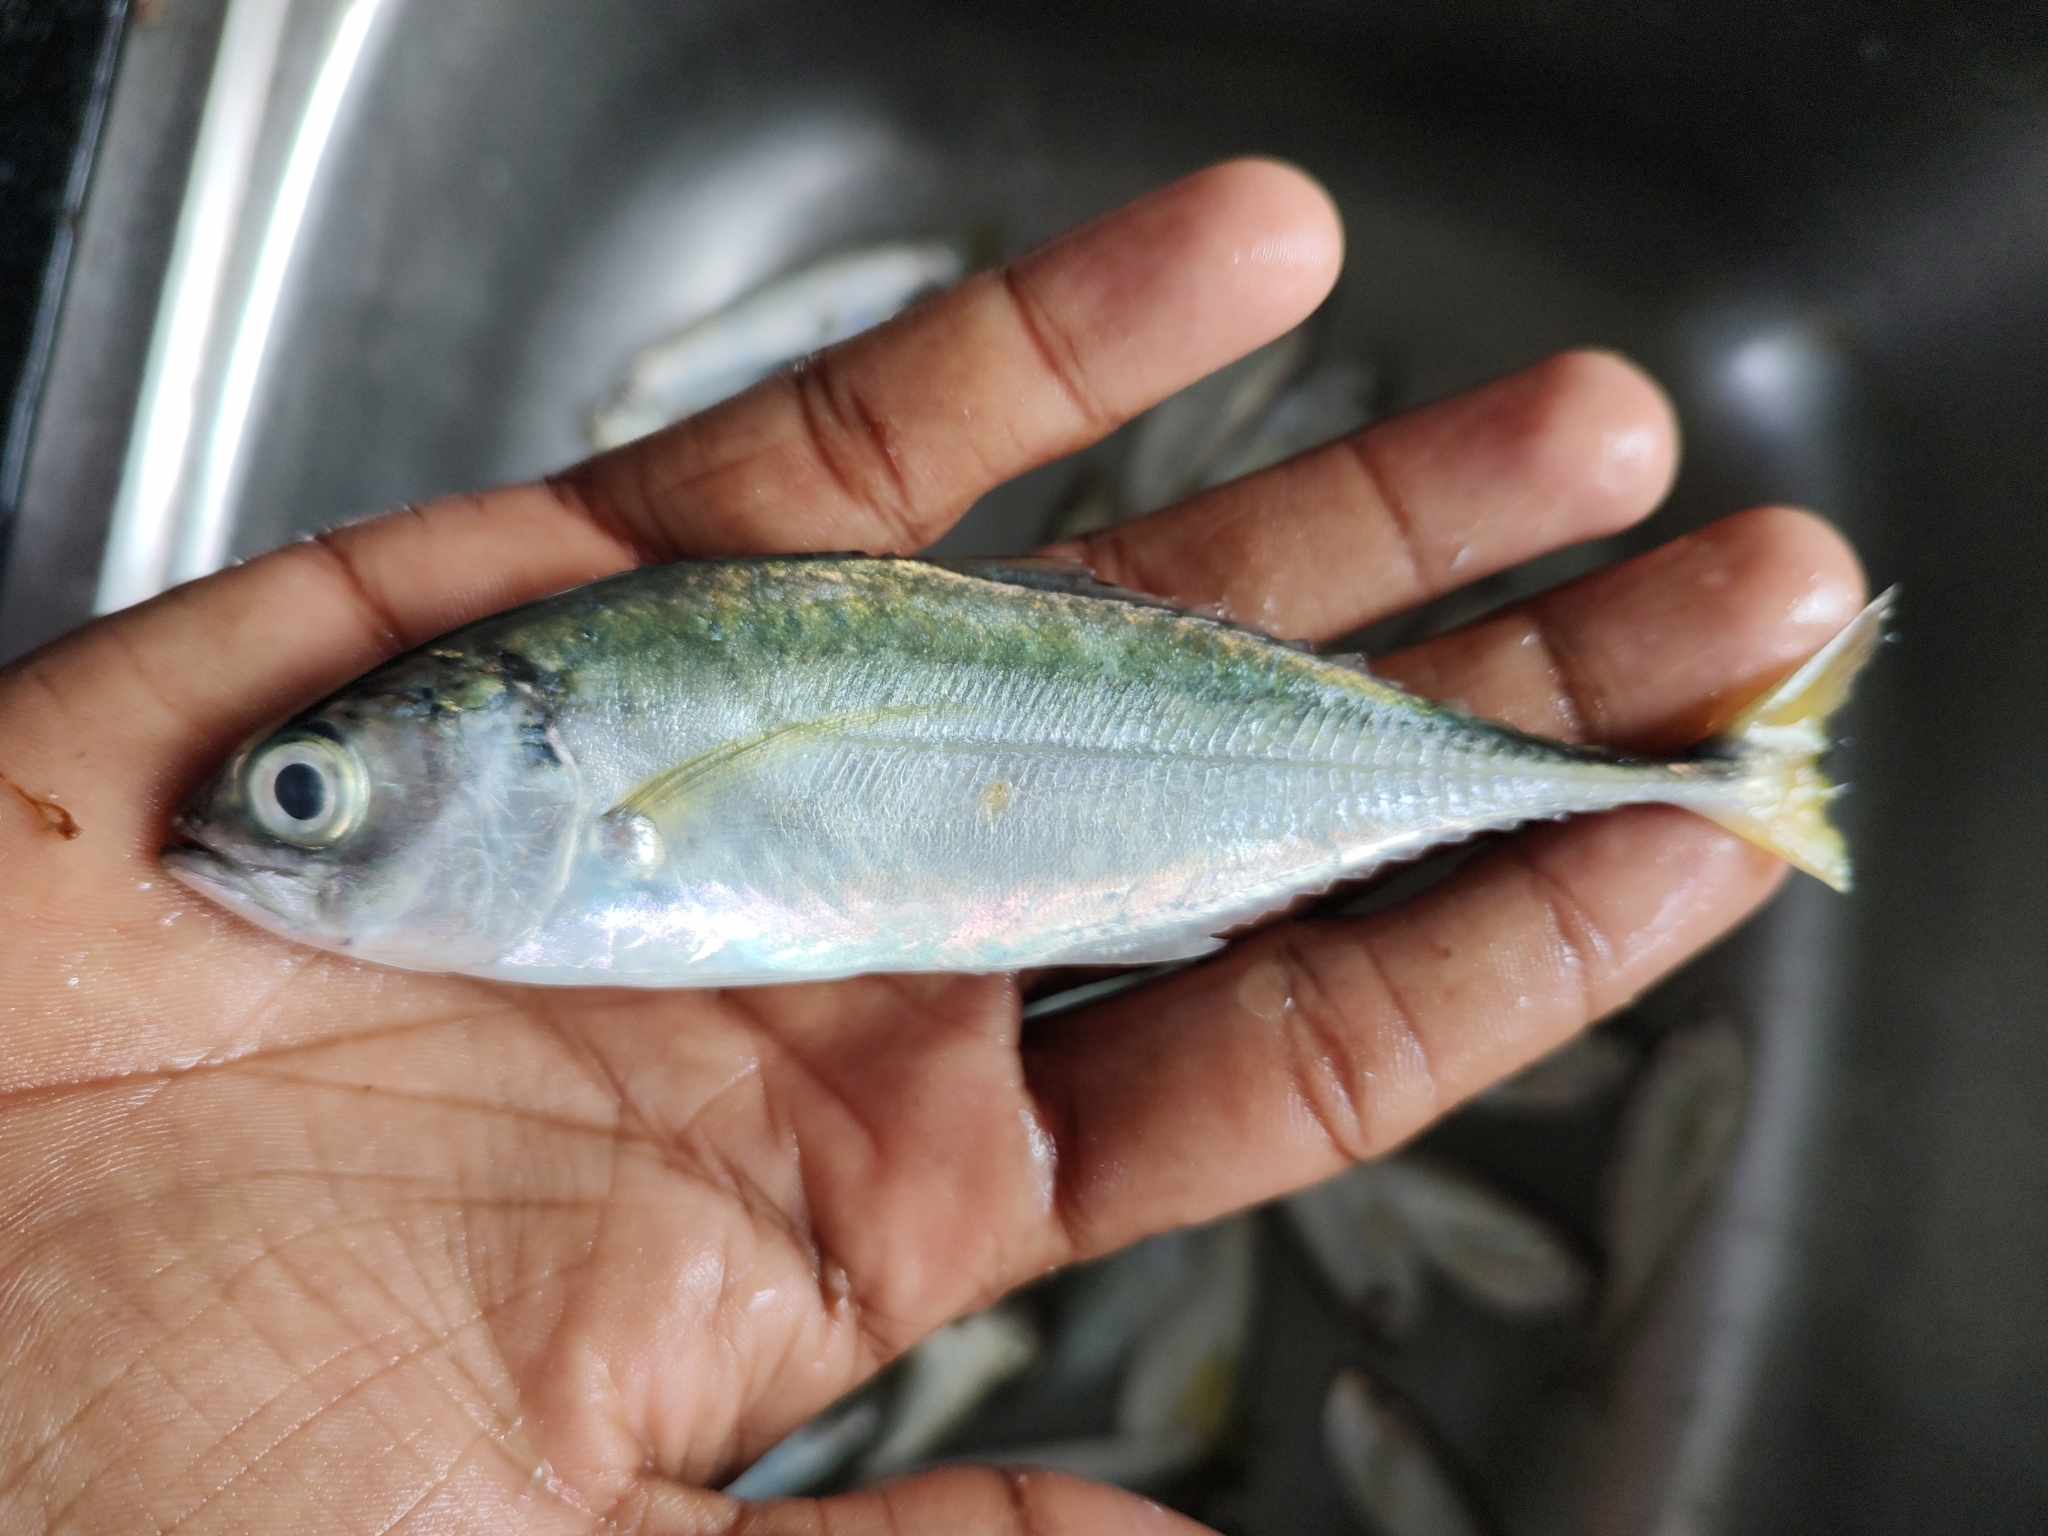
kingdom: Animalia
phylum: Chordata
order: Perciformes
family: Carangidae
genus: Megalaspis
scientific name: Megalaspis cordyla
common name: Torpedo scad
